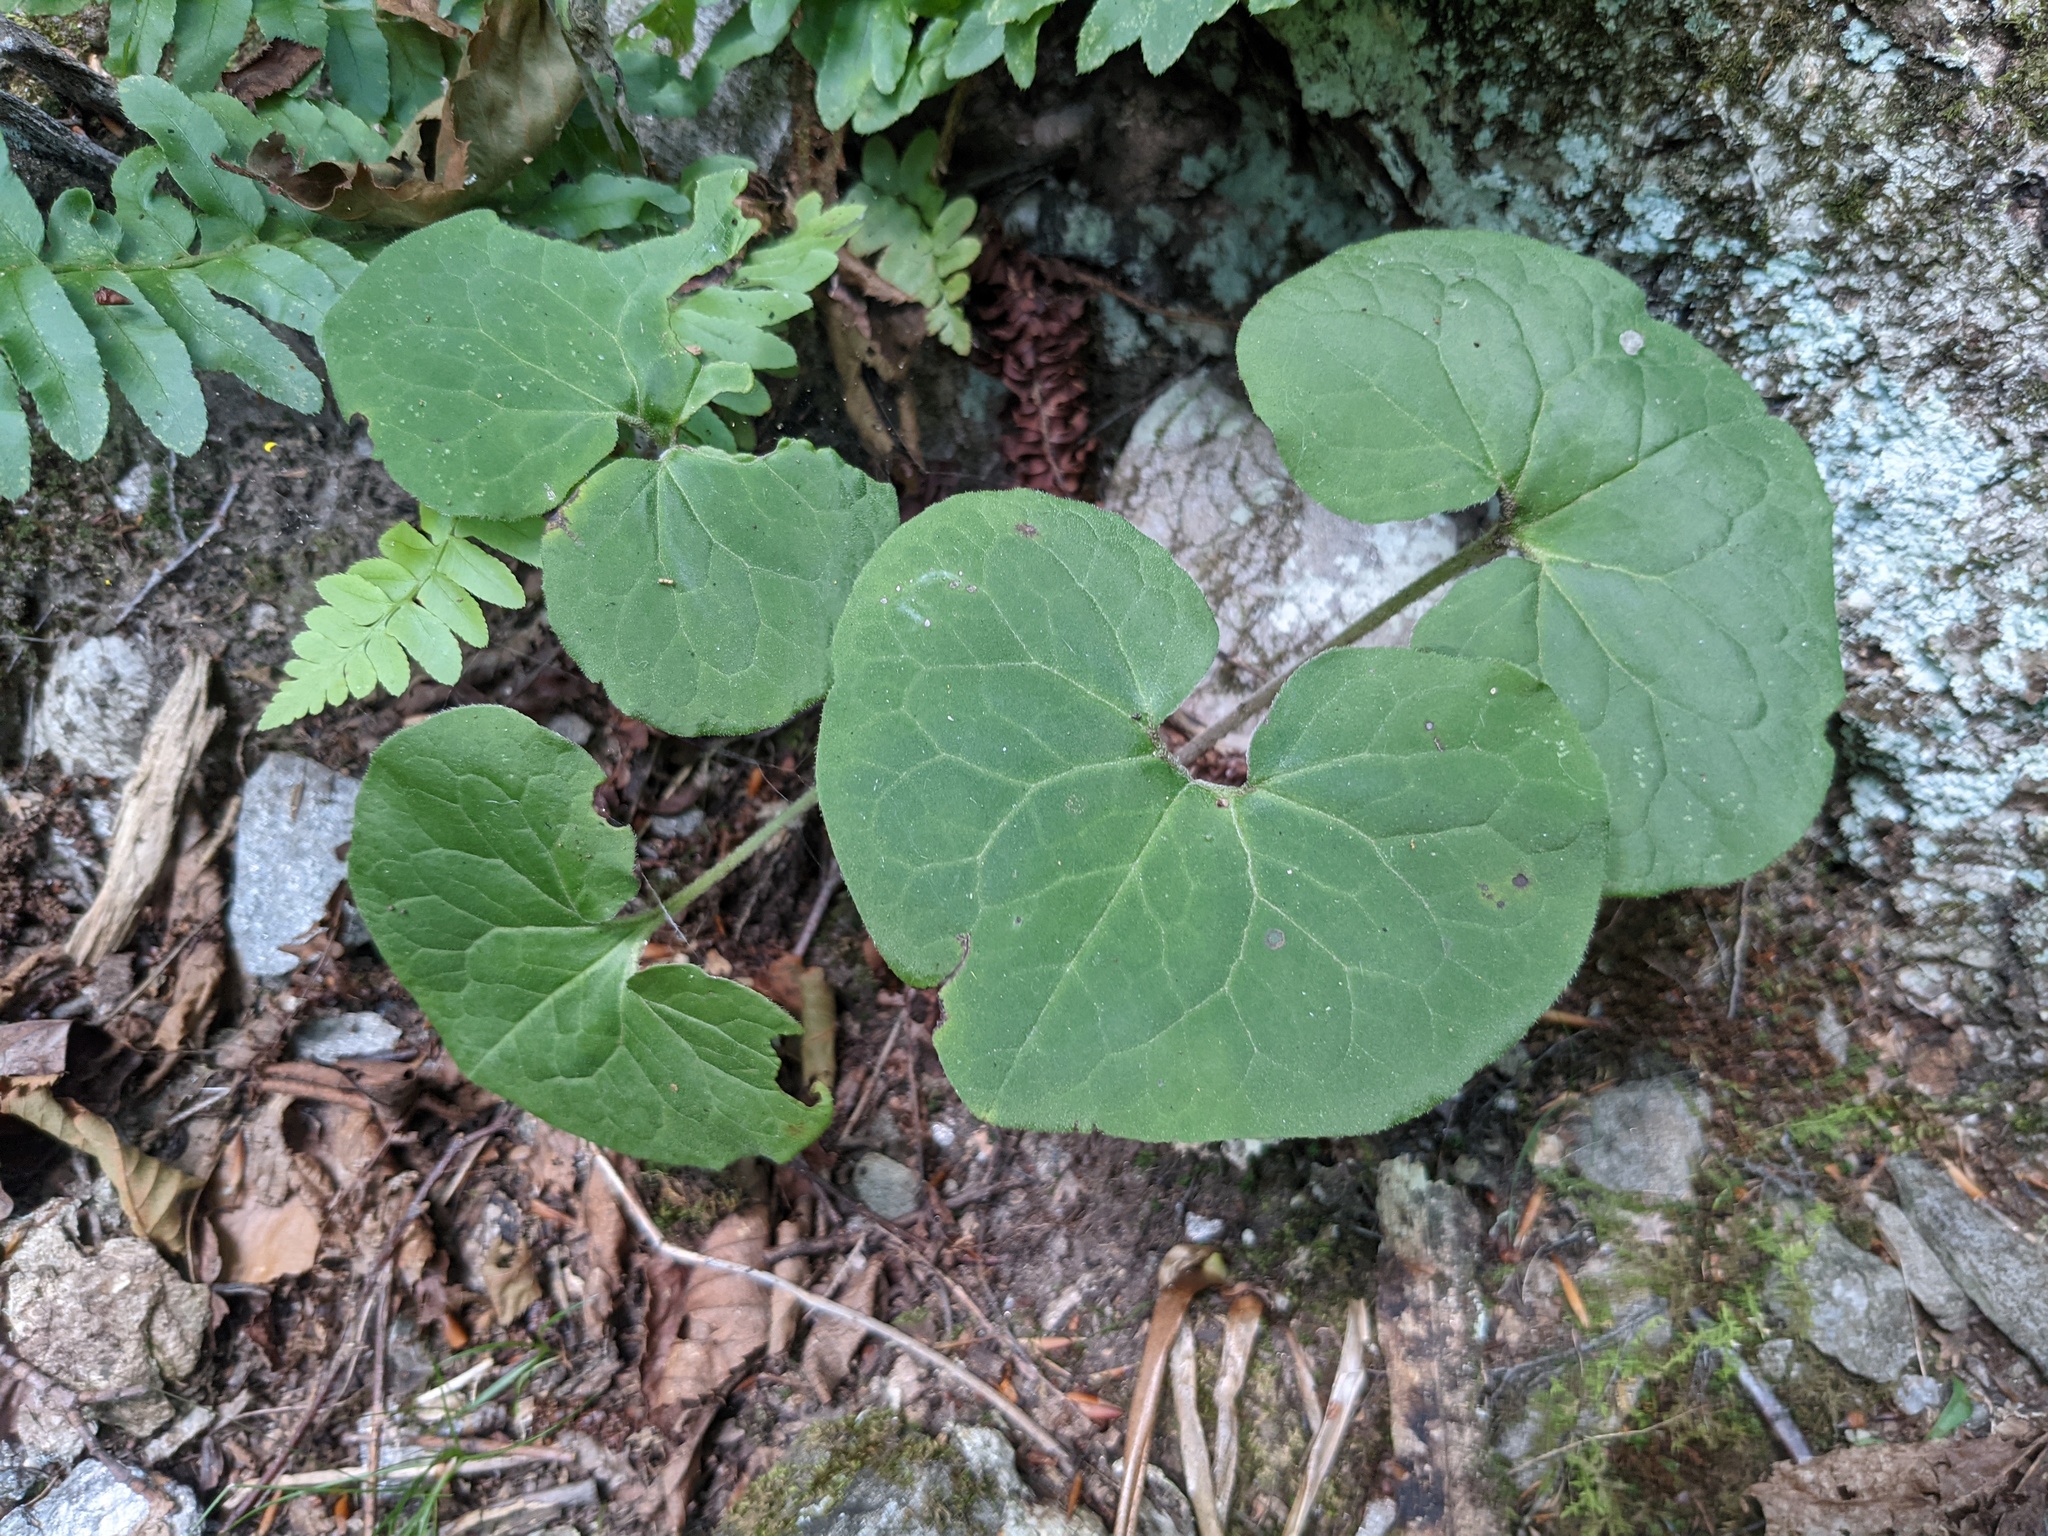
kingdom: Plantae
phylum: Tracheophyta
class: Magnoliopsida
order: Piperales
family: Aristolochiaceae
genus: Asarum
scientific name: Asarum canadense
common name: Wild ginger
